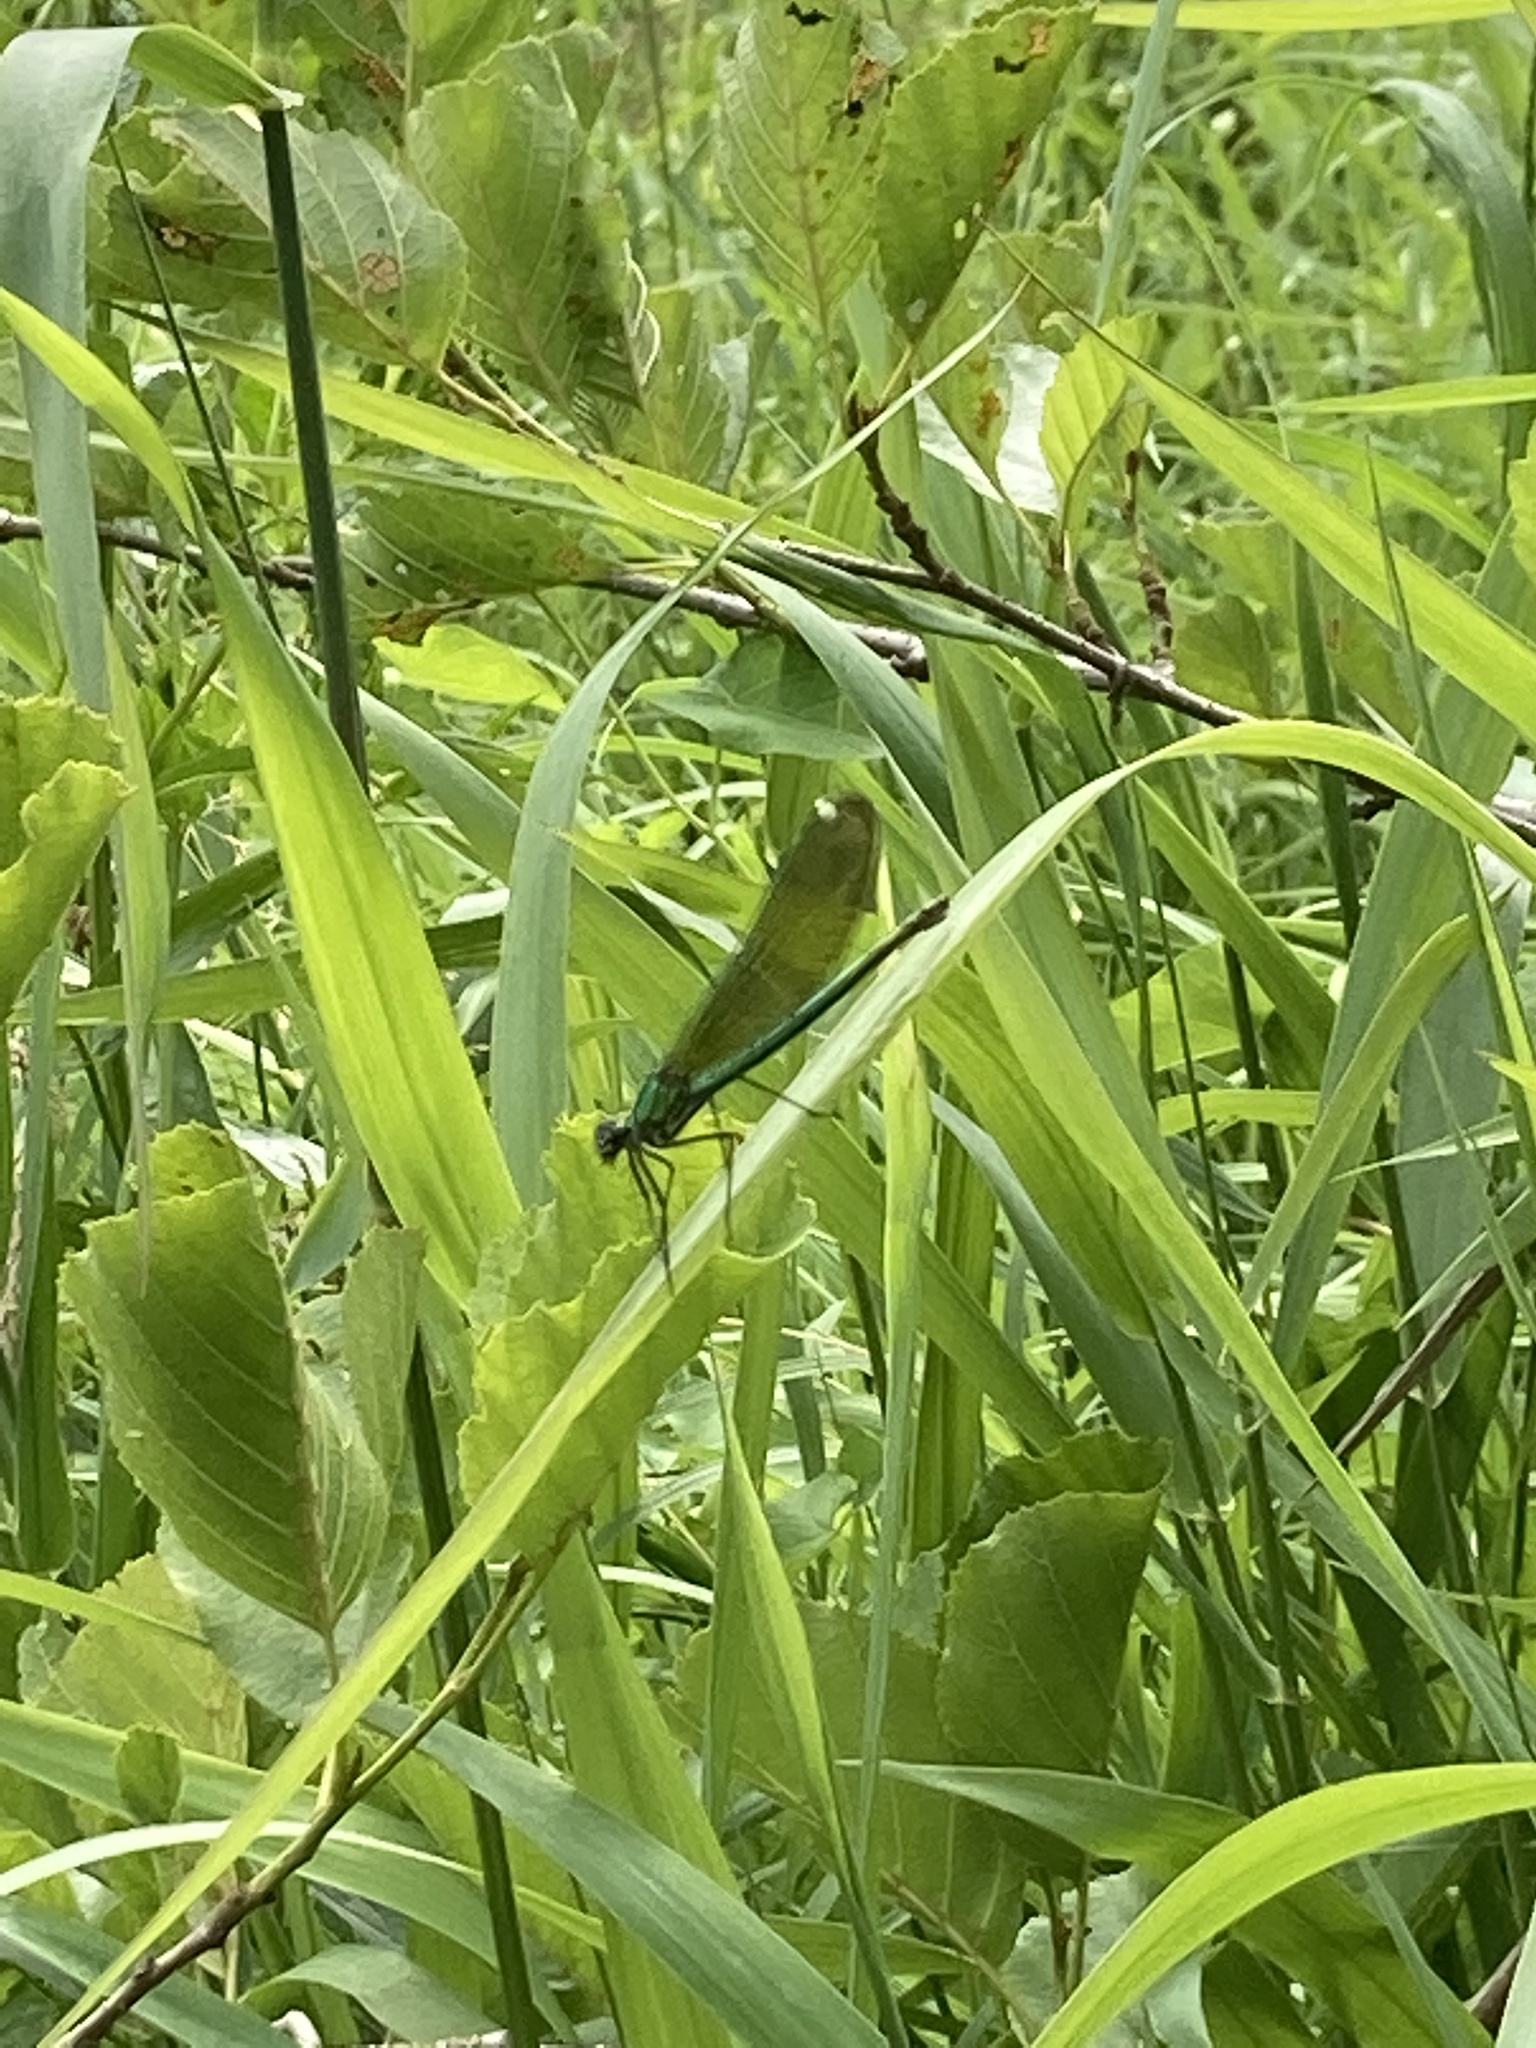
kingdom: Animalia
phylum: Arthropoda
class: Insecta
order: Odonata
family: Calopterygidae
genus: Calopteryx
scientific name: Calopteryx splendens
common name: Banded demoiselle
